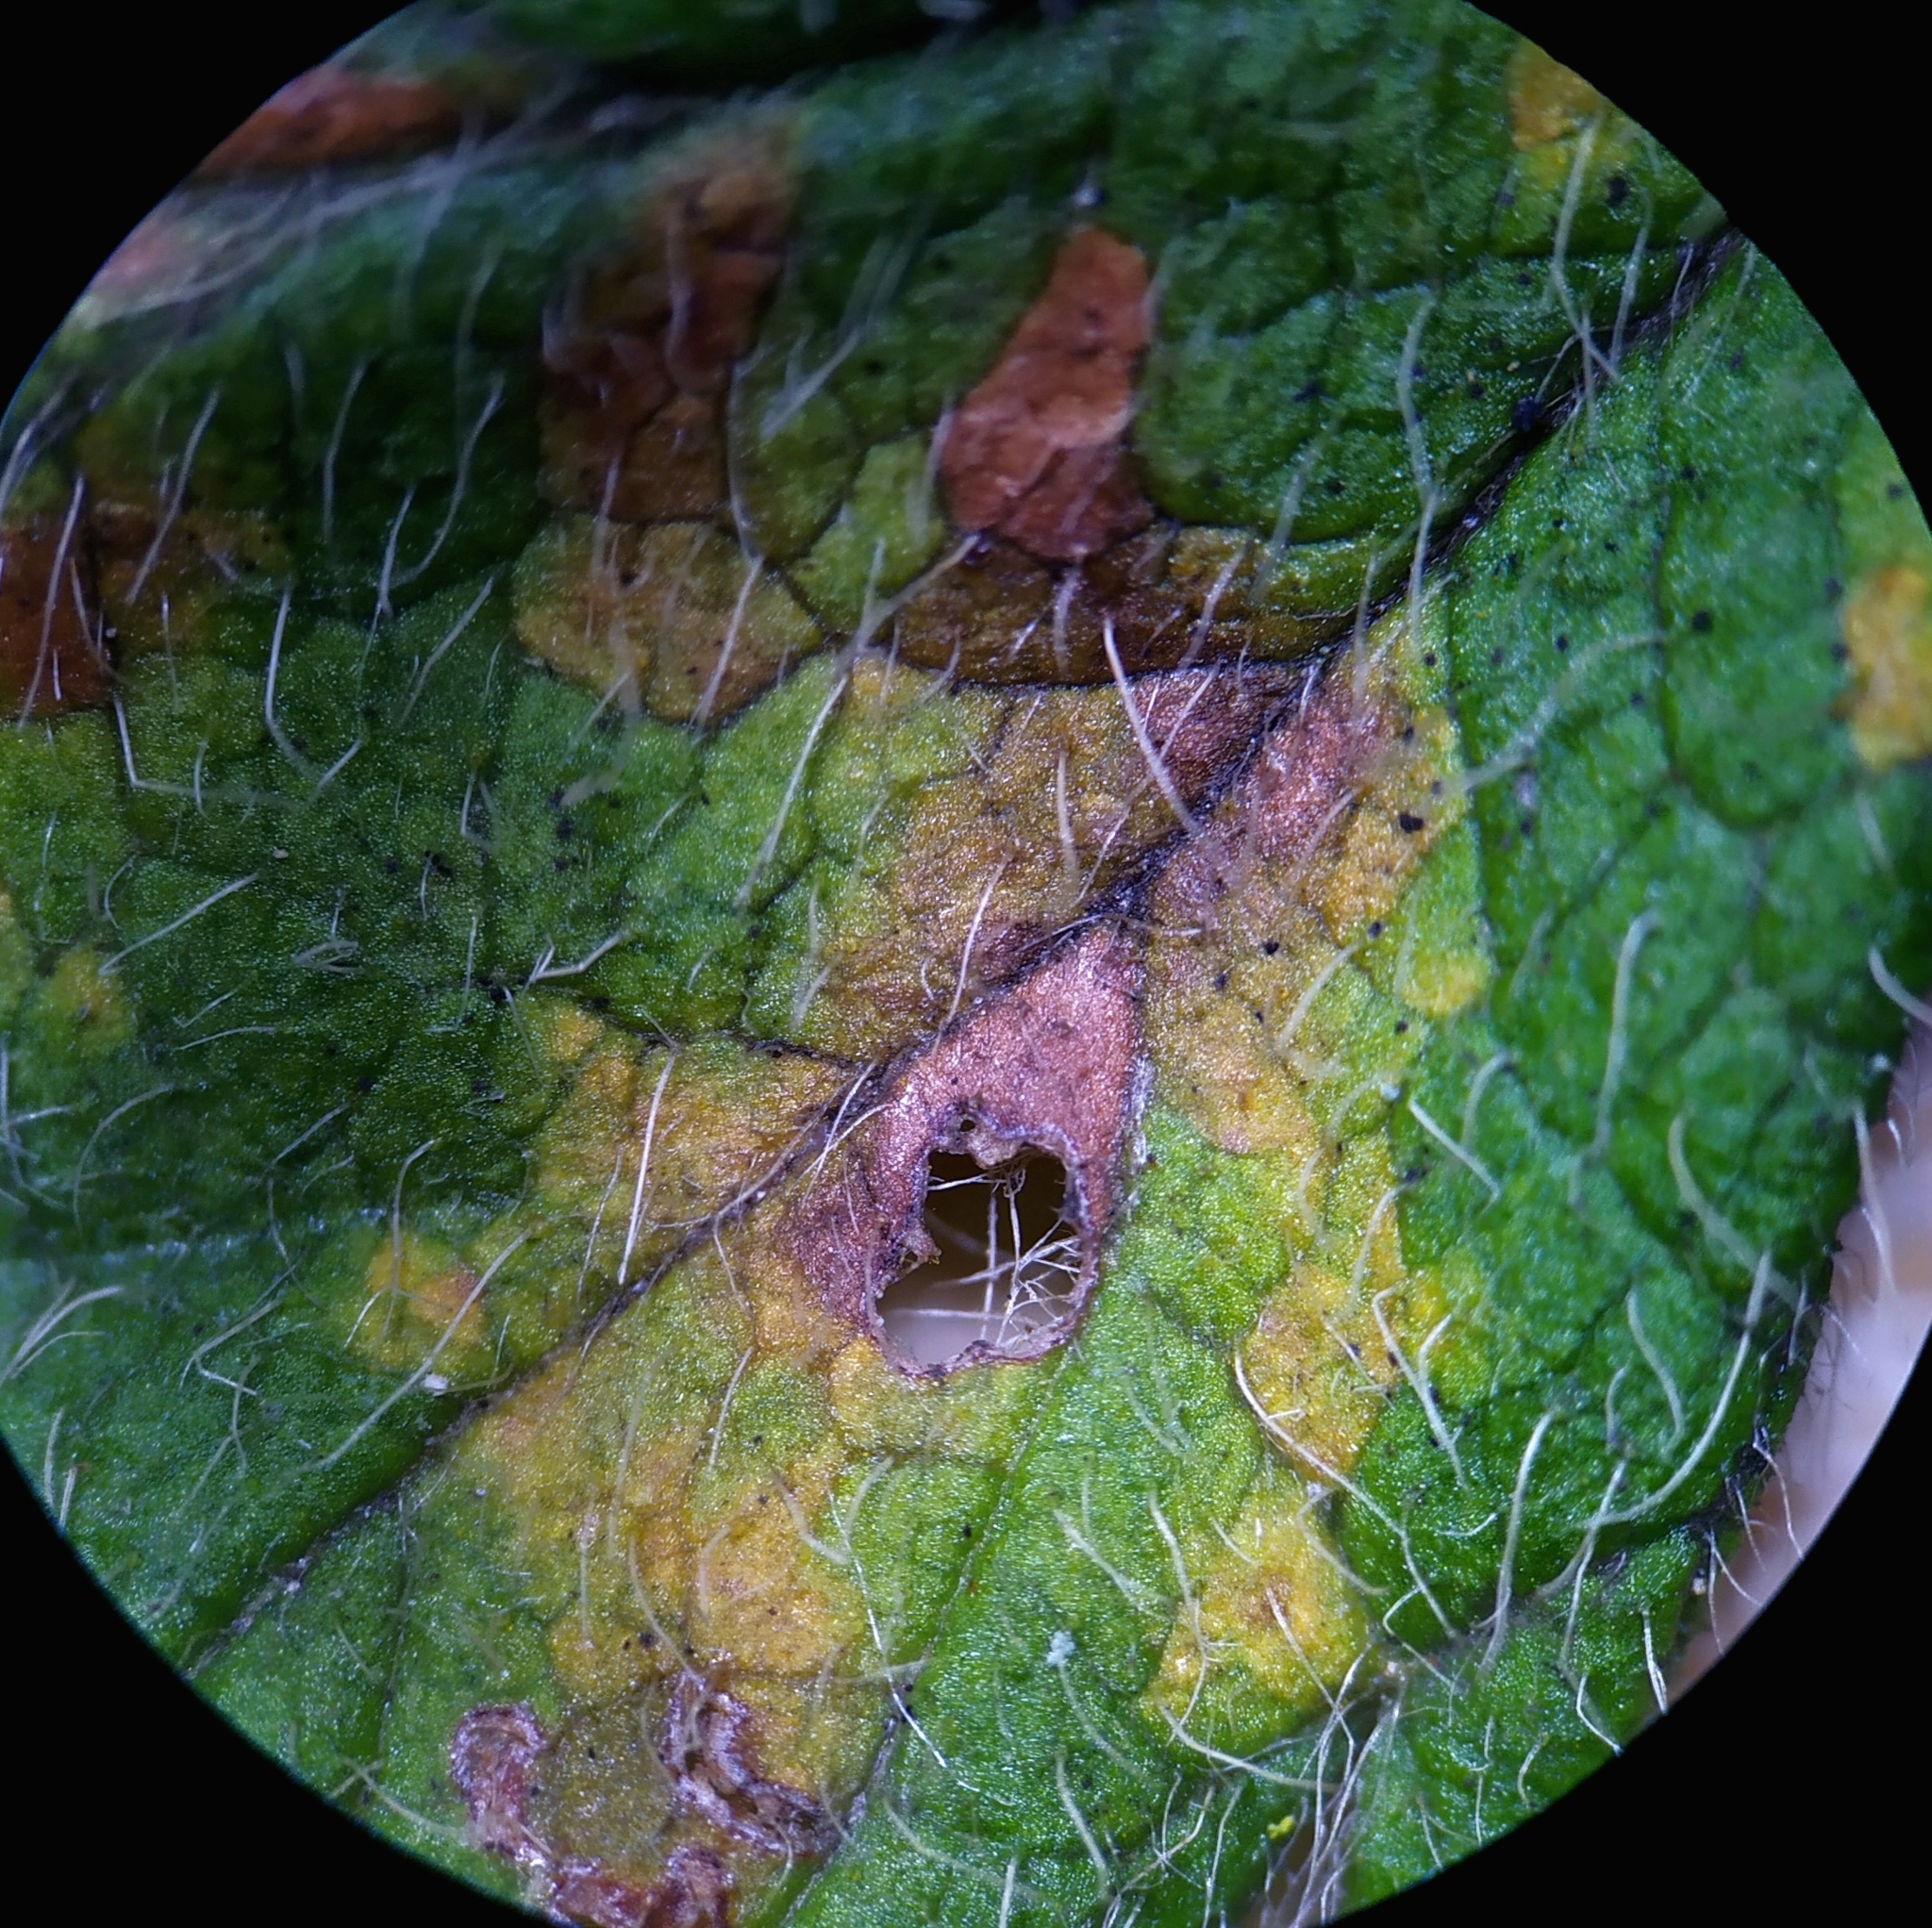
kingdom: Chromista
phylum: Oomycota
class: Peronosporea
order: Peronosporales
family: Peronosporaceae
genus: Peronospora
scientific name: Peronospora agrimoniae
